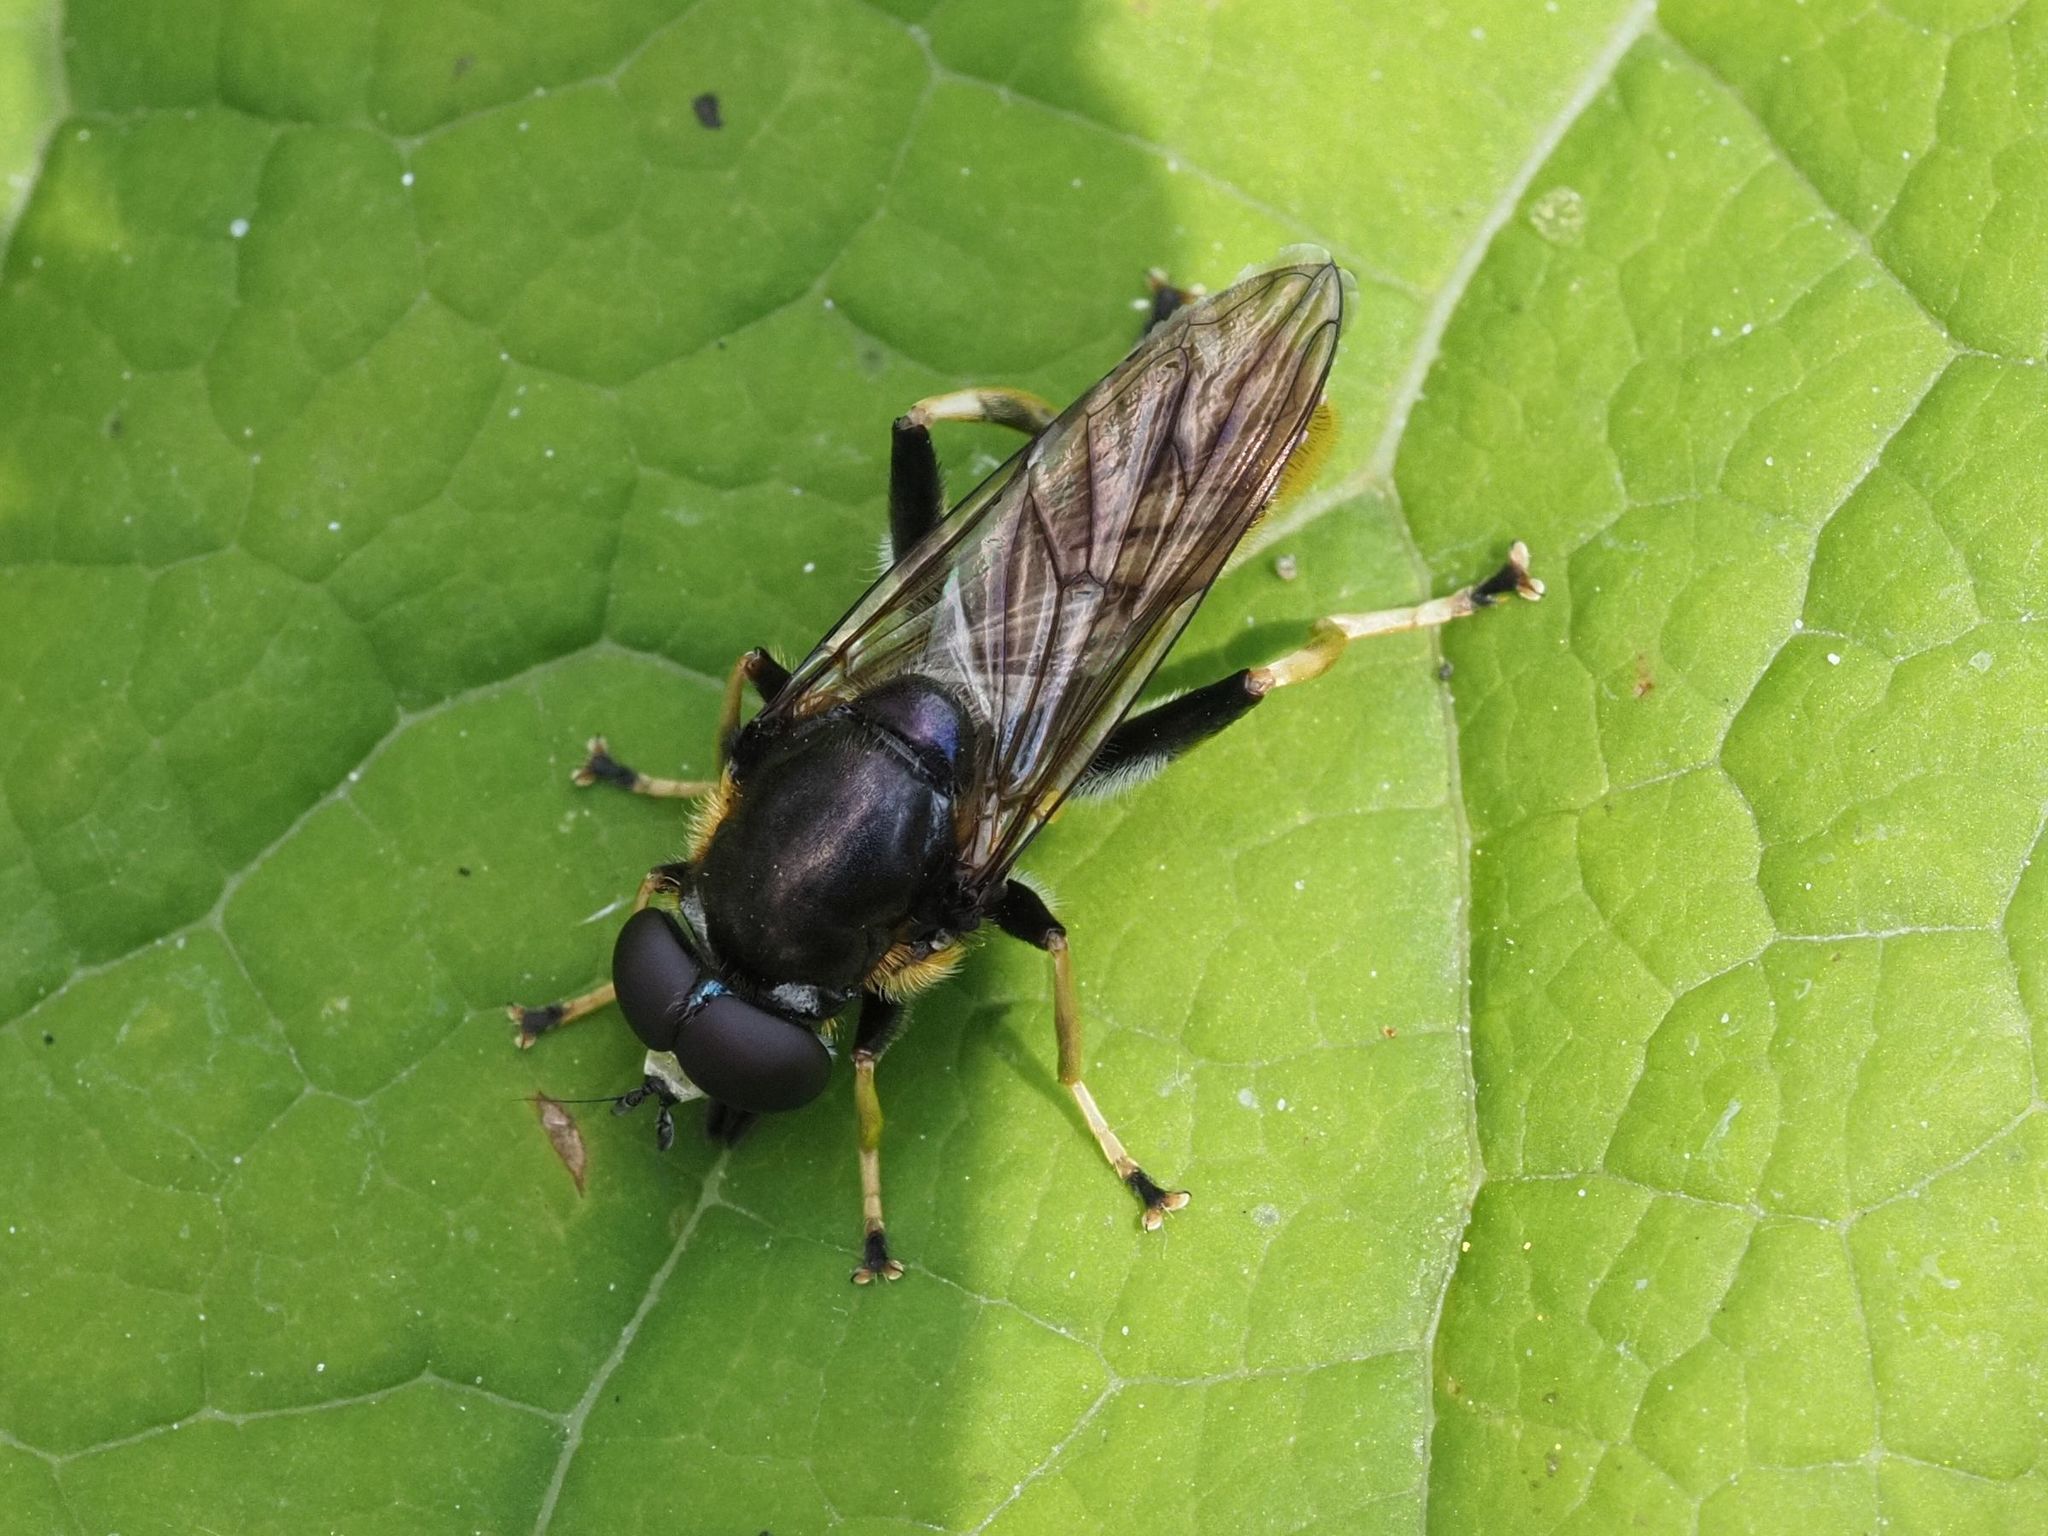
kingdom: Animalia
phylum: Arthropoda
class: Insecta
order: Diptera
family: Syrphidae
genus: Xylota
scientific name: Xylota sylvarum
